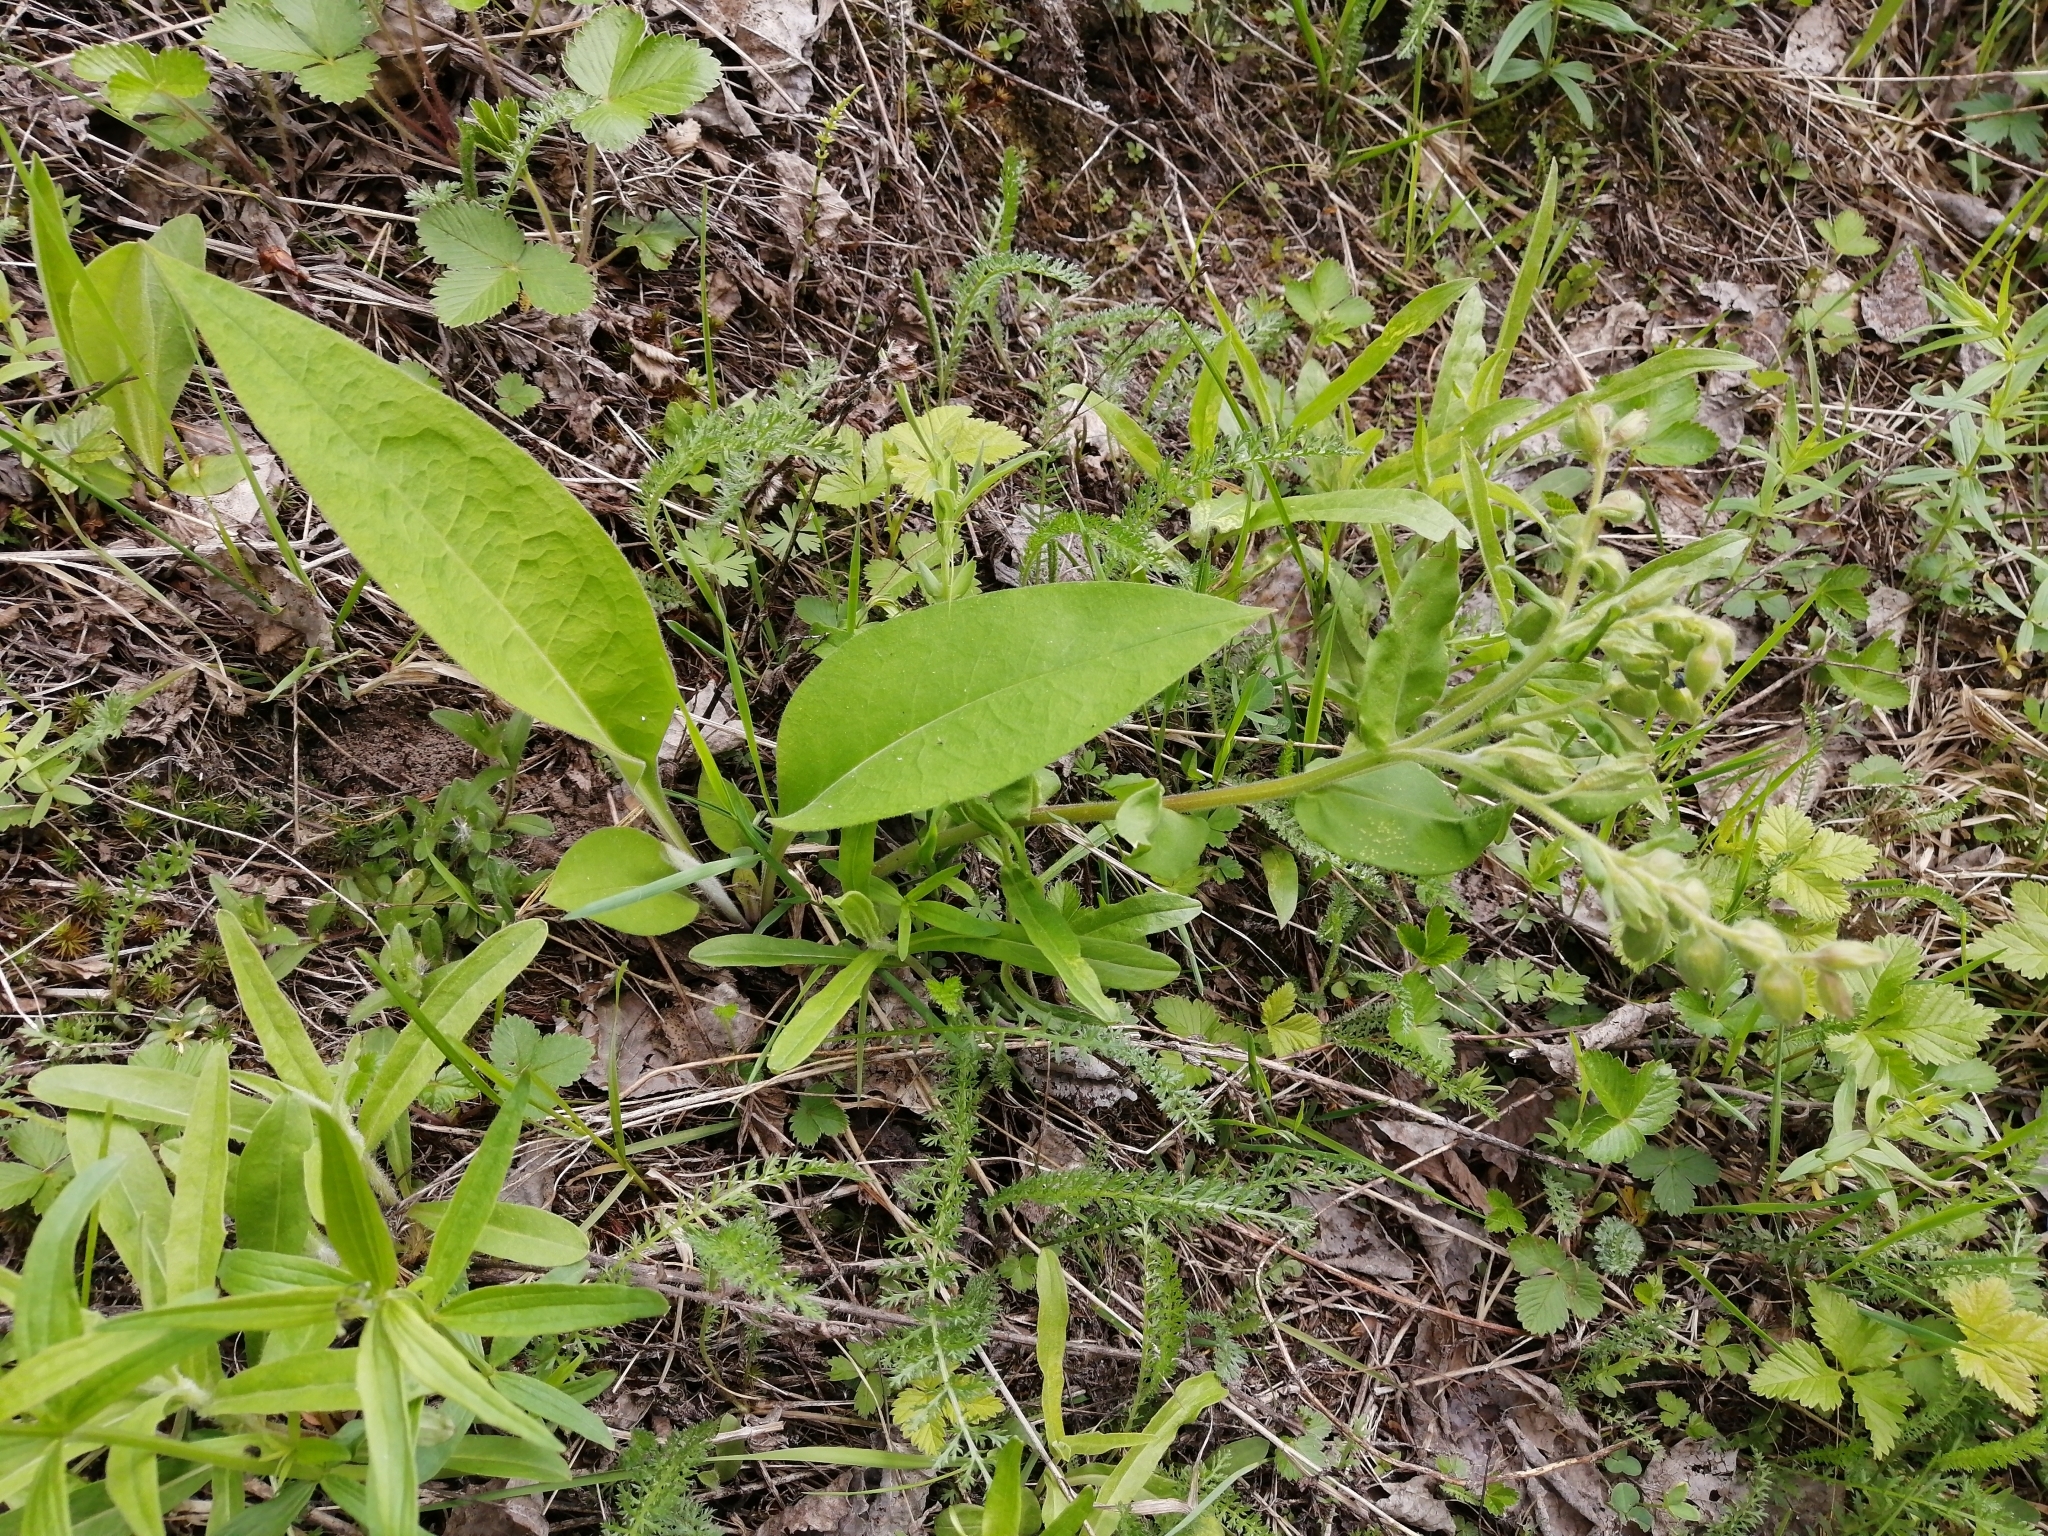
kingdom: Plantae
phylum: Tracheophyta
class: Magnoliopsida
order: Boraginales
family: Boraginaceae
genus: Pulmonaria
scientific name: Pulmonaria mollis
